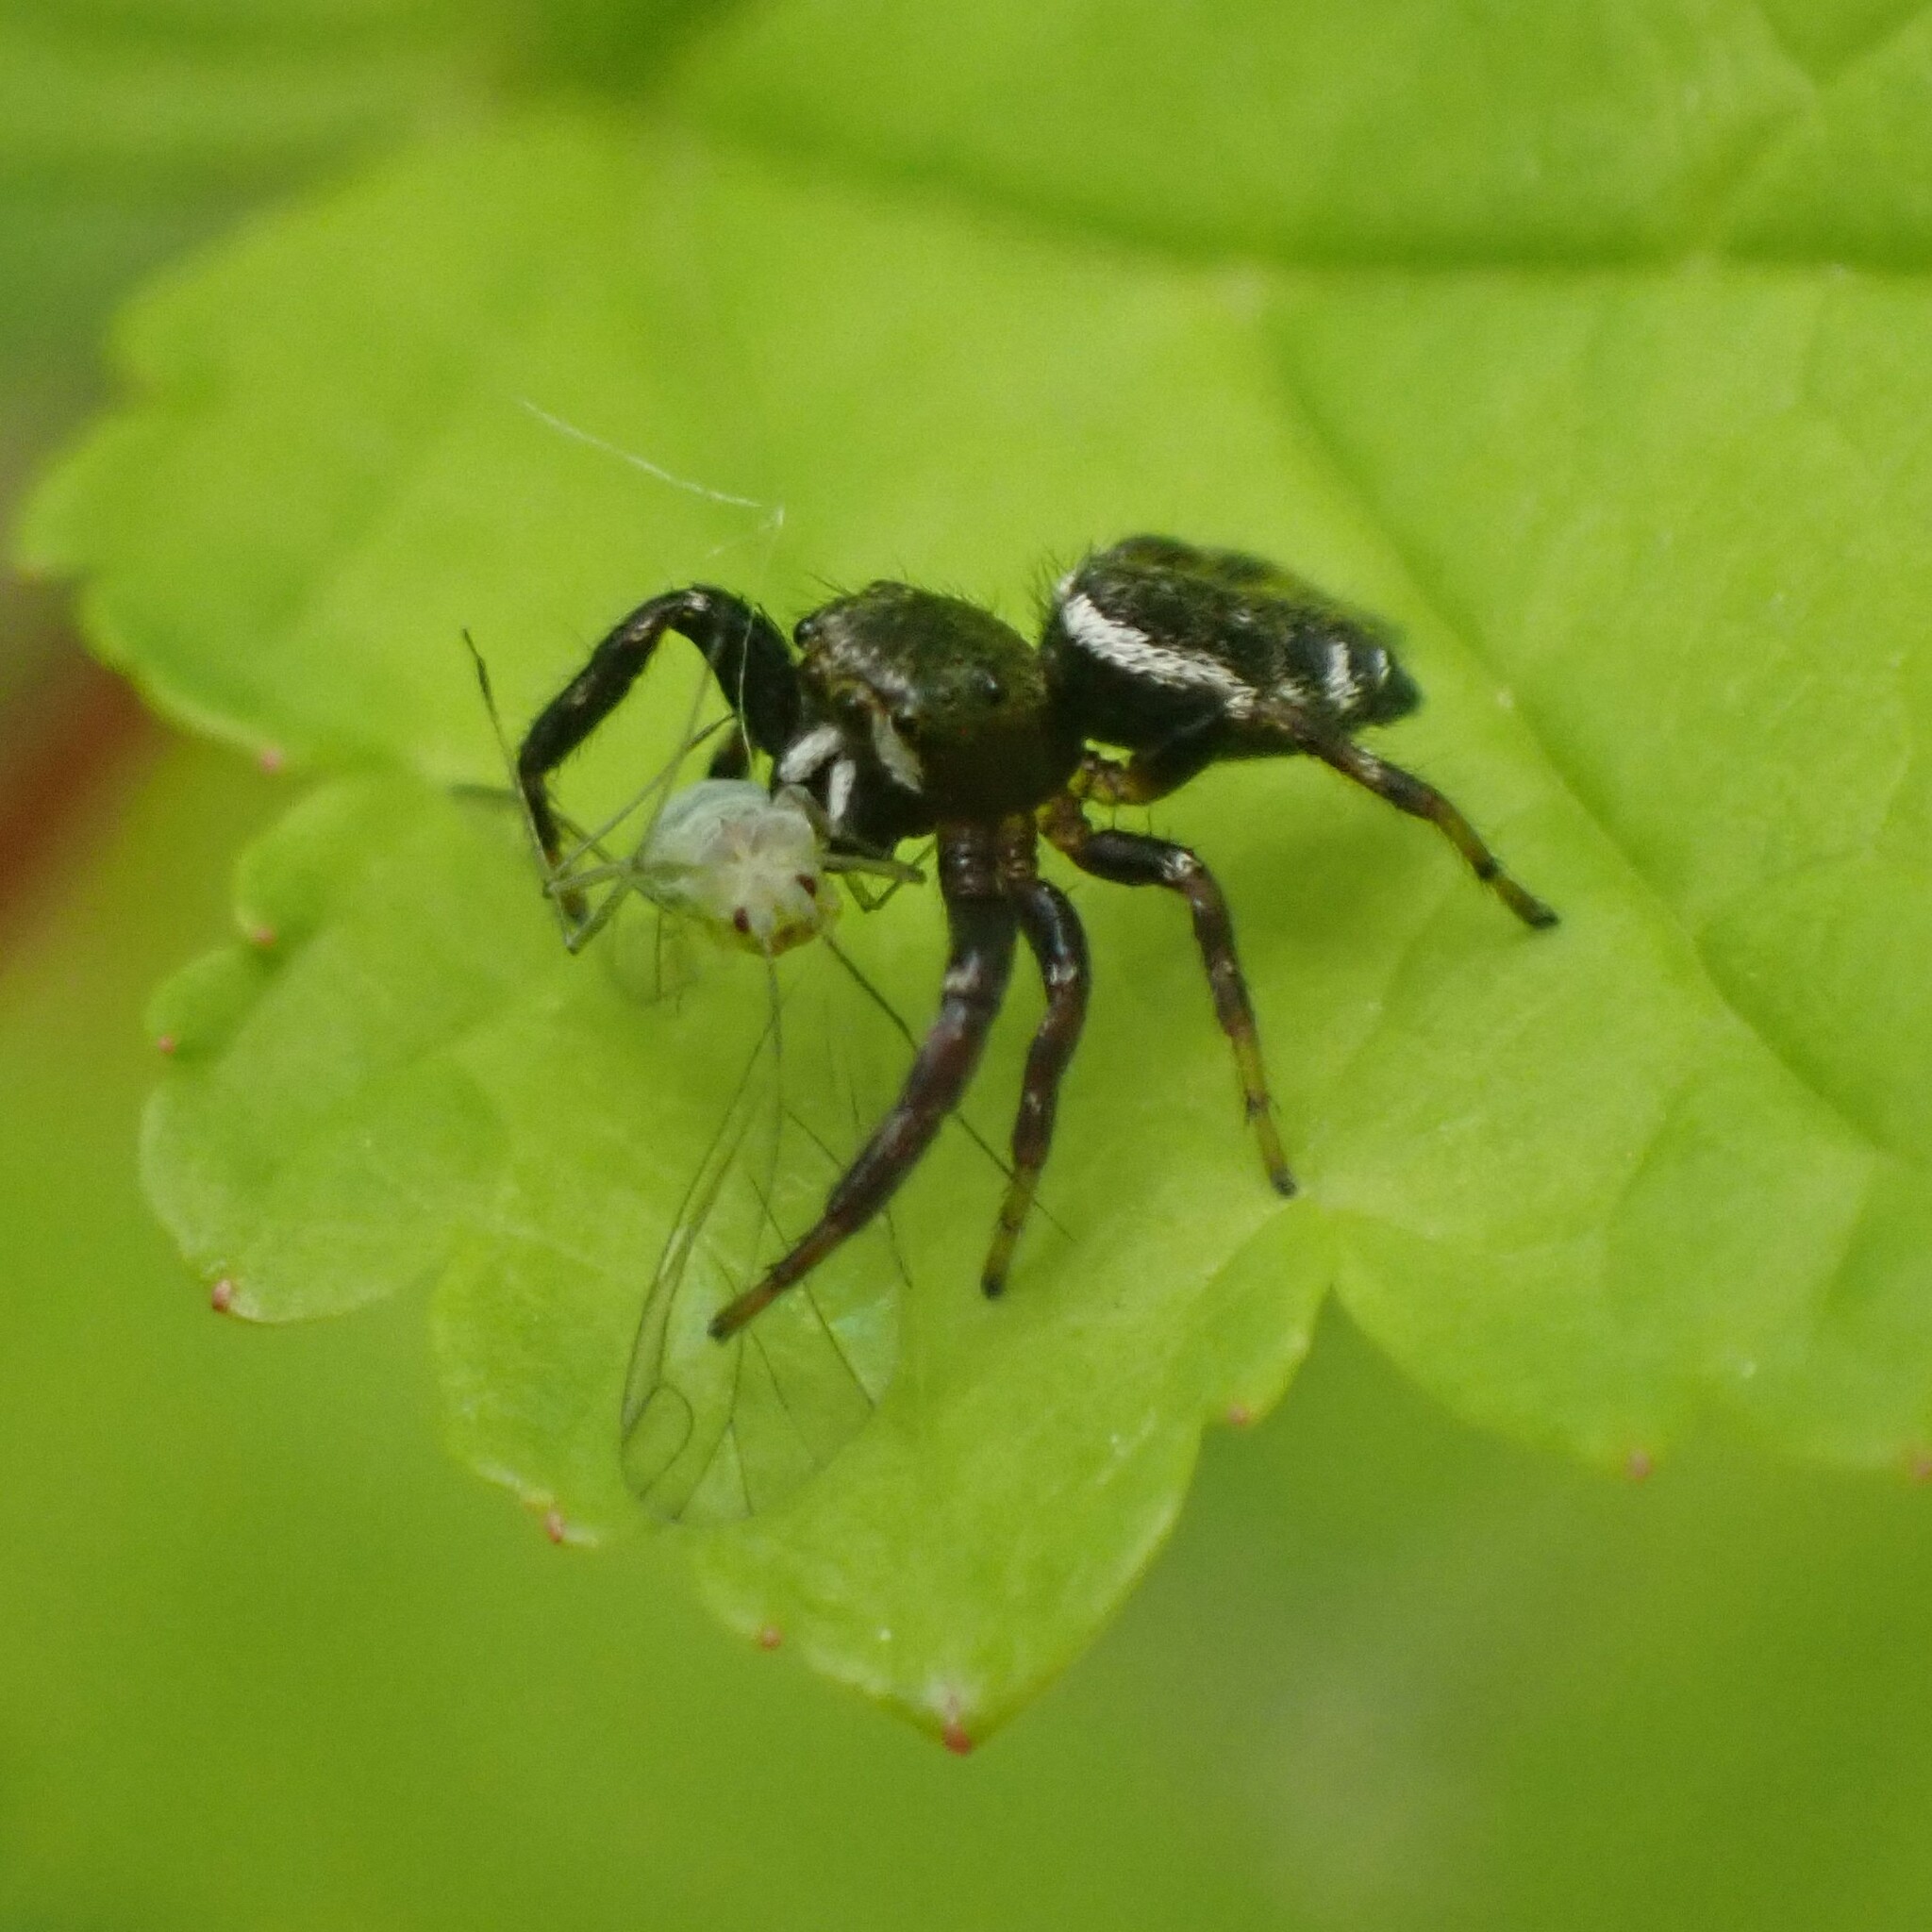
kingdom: Animalia
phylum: Arthropoda
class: Arachnida
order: Araneae
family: Salticidae
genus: Metaphidippus
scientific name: Metaphidippus manni
